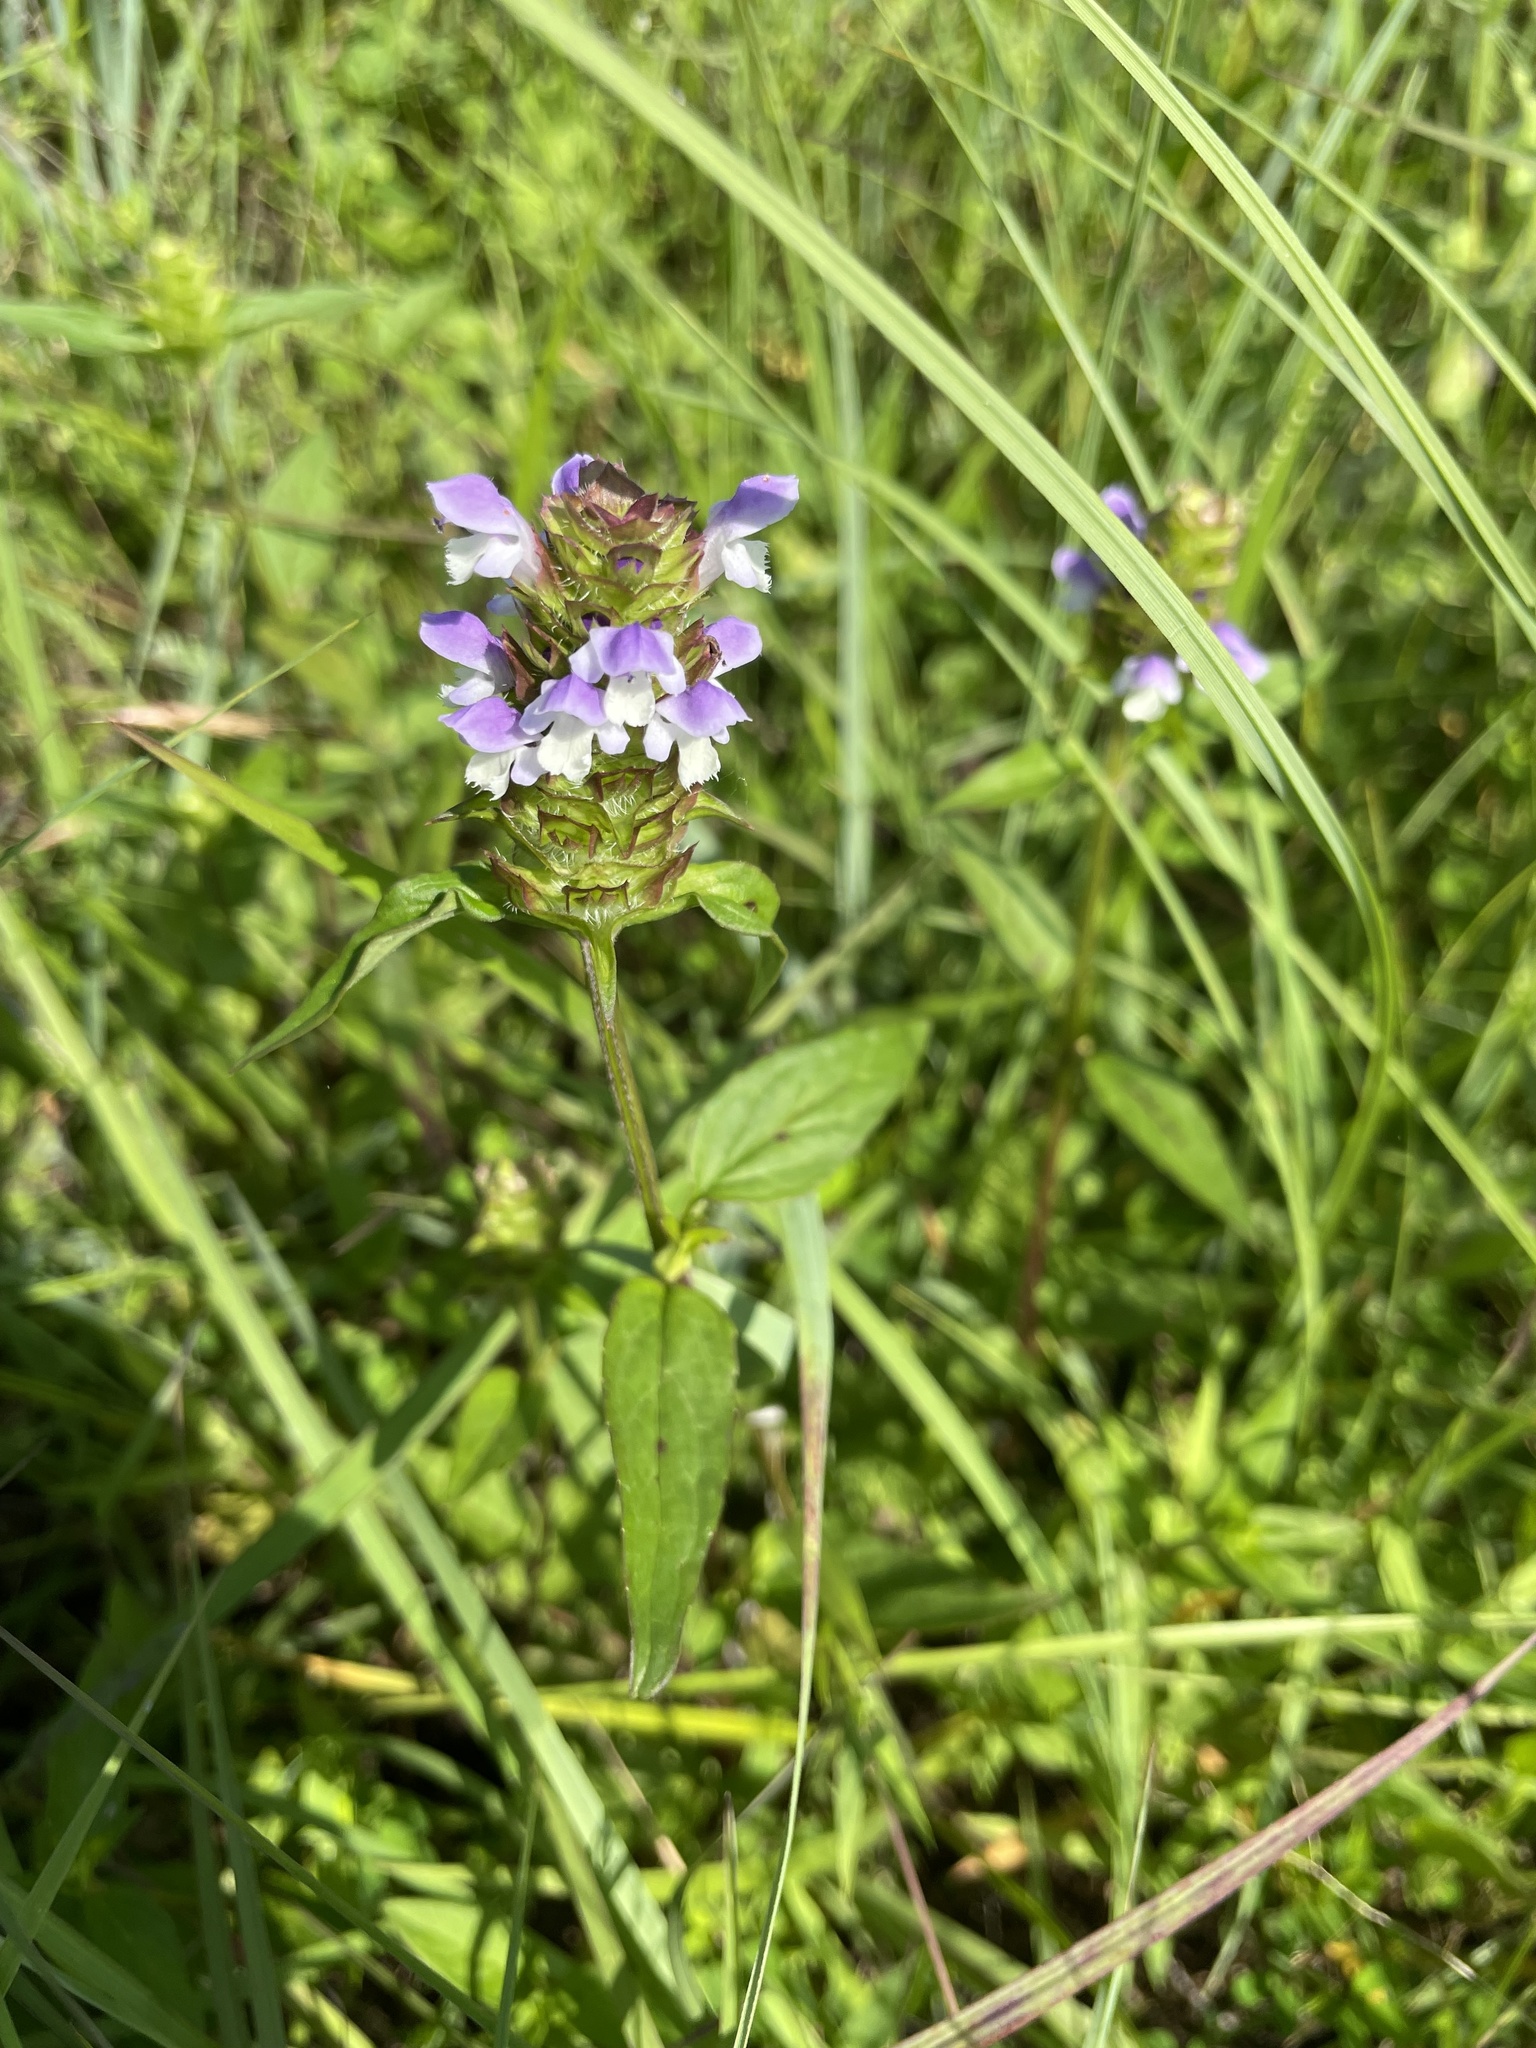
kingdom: Plantae
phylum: Tracheophyta
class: Magnoliopsida
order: Lamiales
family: Lamiaceae
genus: Prunella
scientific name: Prunella vulgaris
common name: Heal-all
